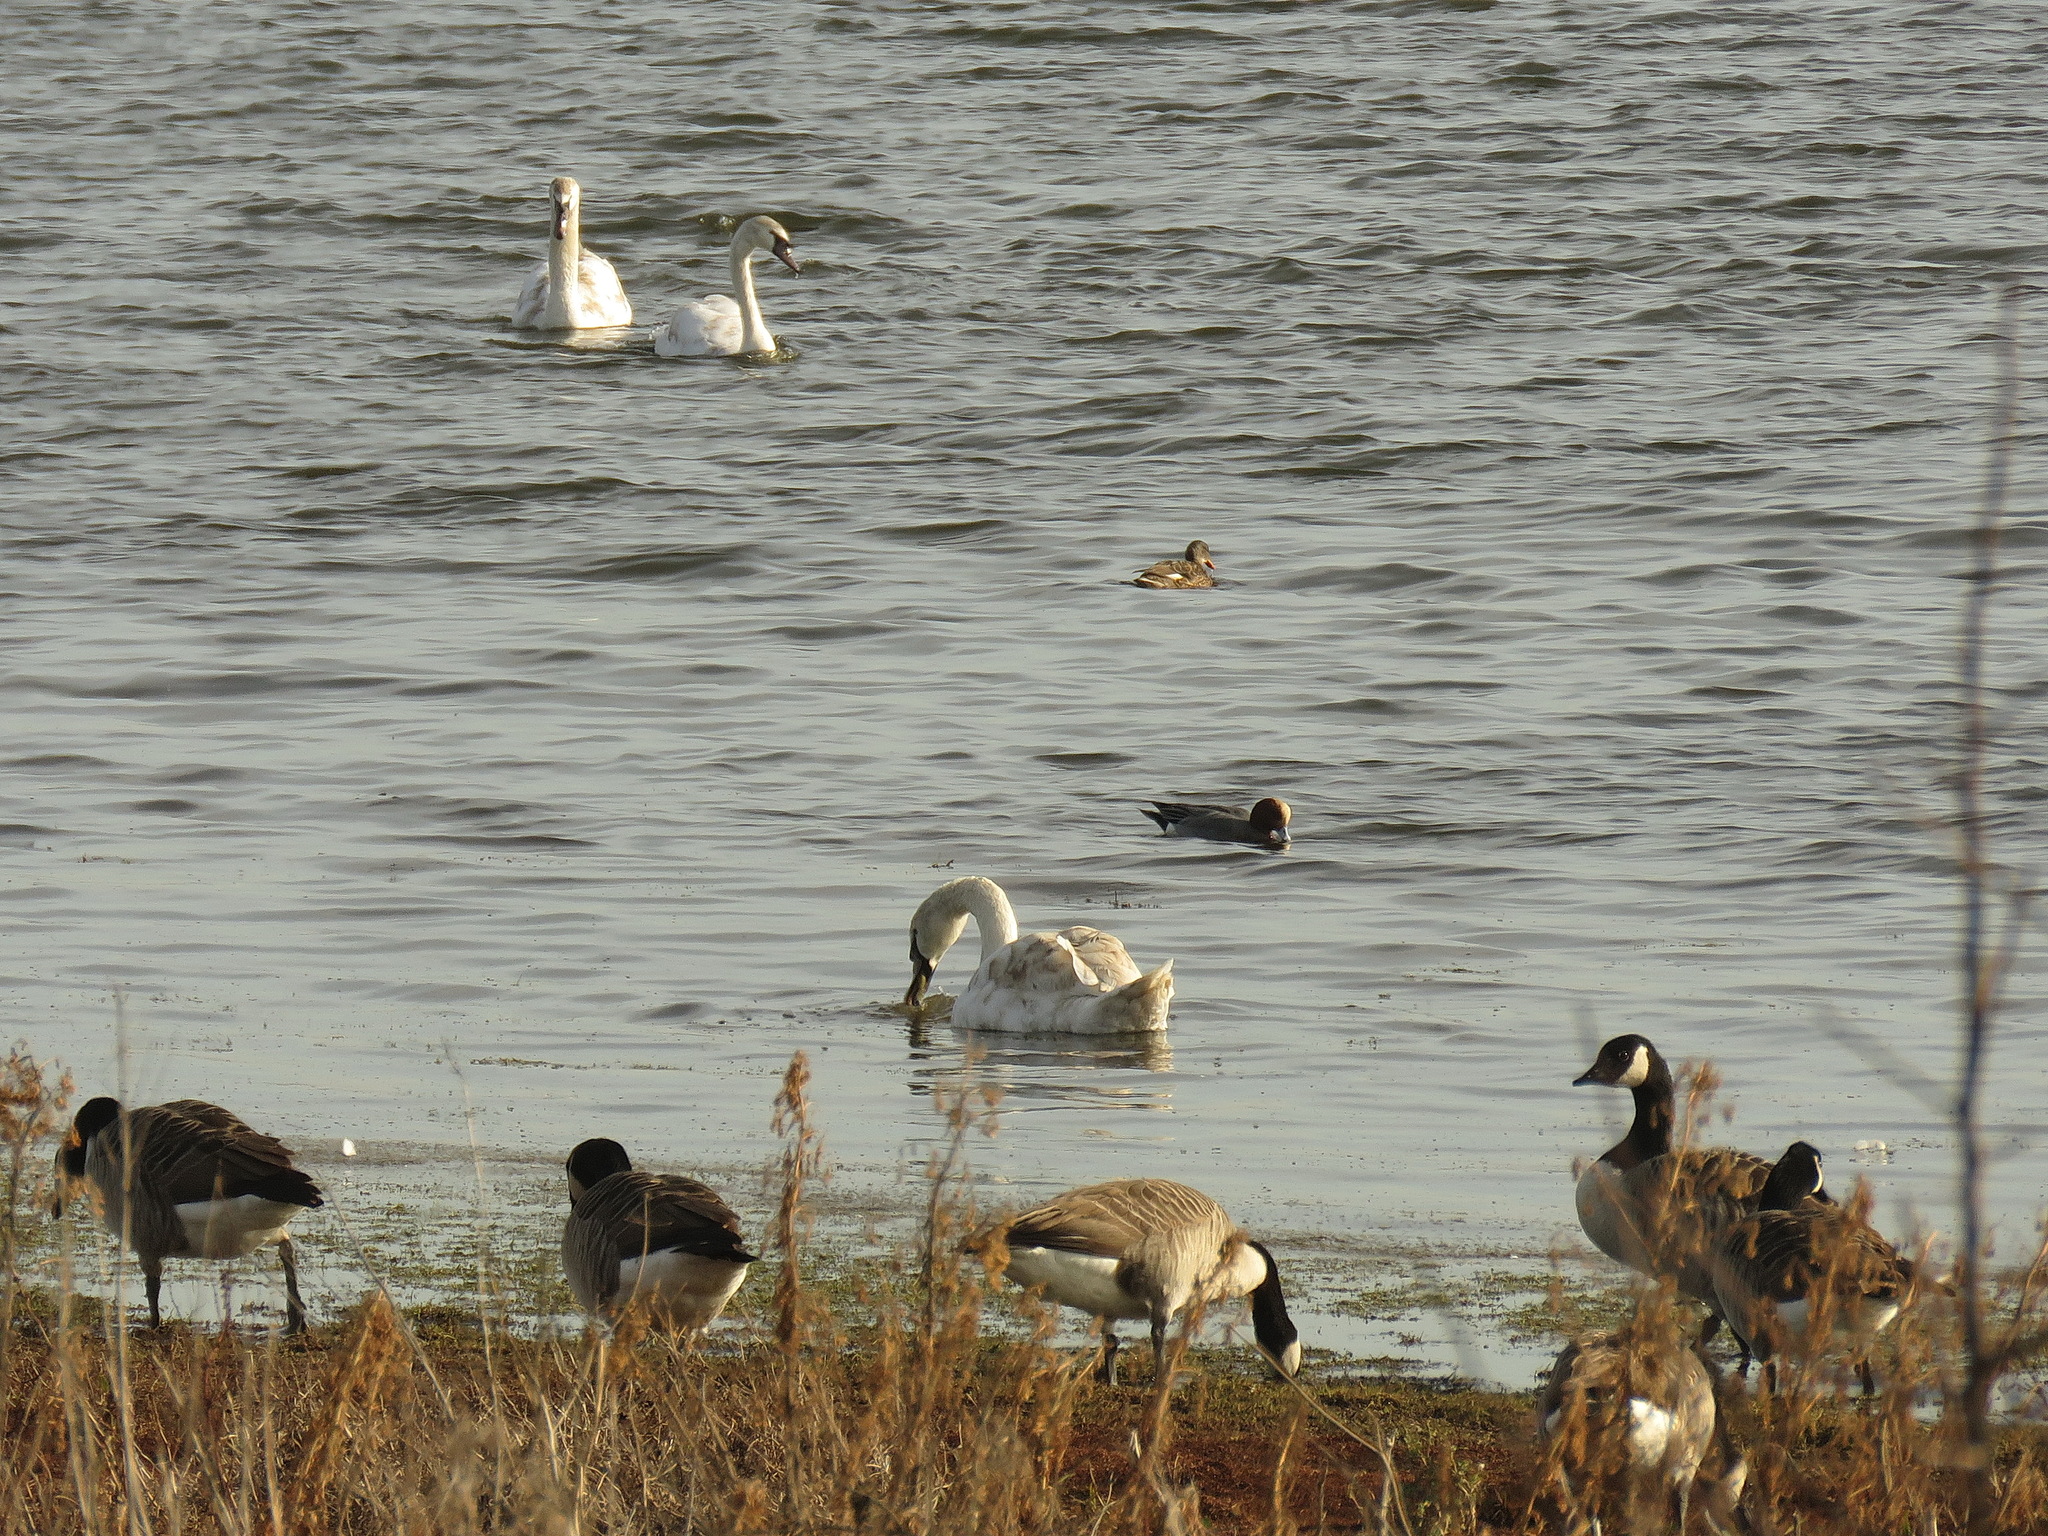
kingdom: Animalia
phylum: Chordata
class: Aves
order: Anseriformes
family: Anatidae
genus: Branta
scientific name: Branta canadensis
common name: Canada goose
